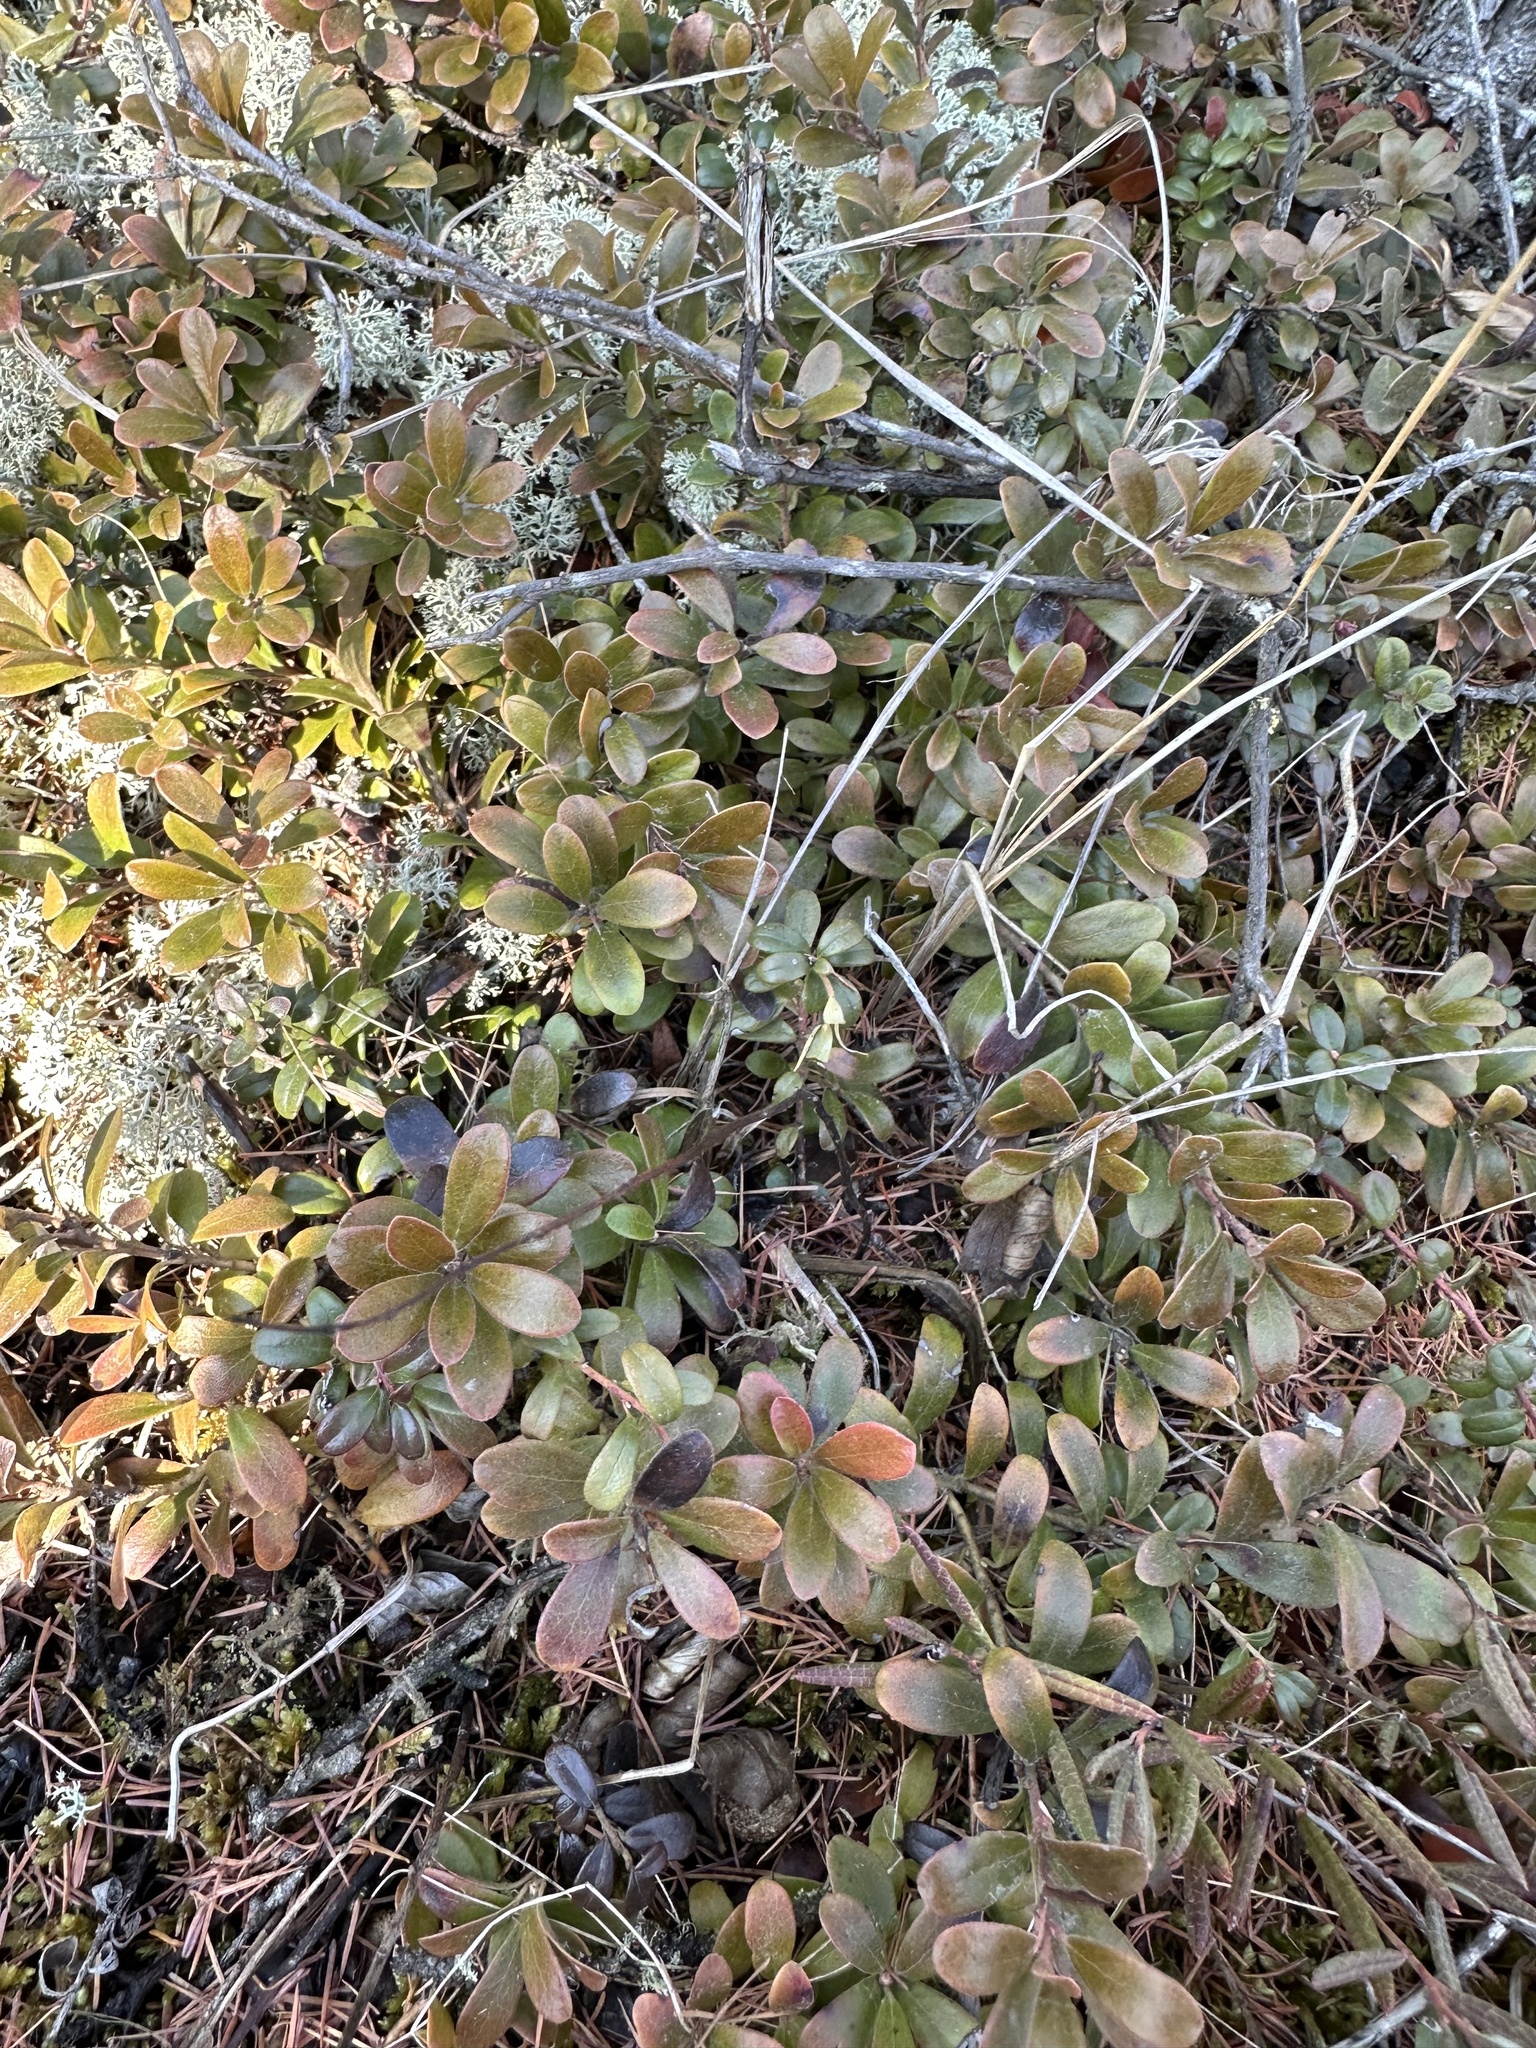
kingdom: Plantae
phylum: Tracheophyta
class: Magnoliopsida
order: Ericales
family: Ericaceae
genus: Arctostaphylos
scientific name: Arctostaphylos uva-ursi
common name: Bearberry
